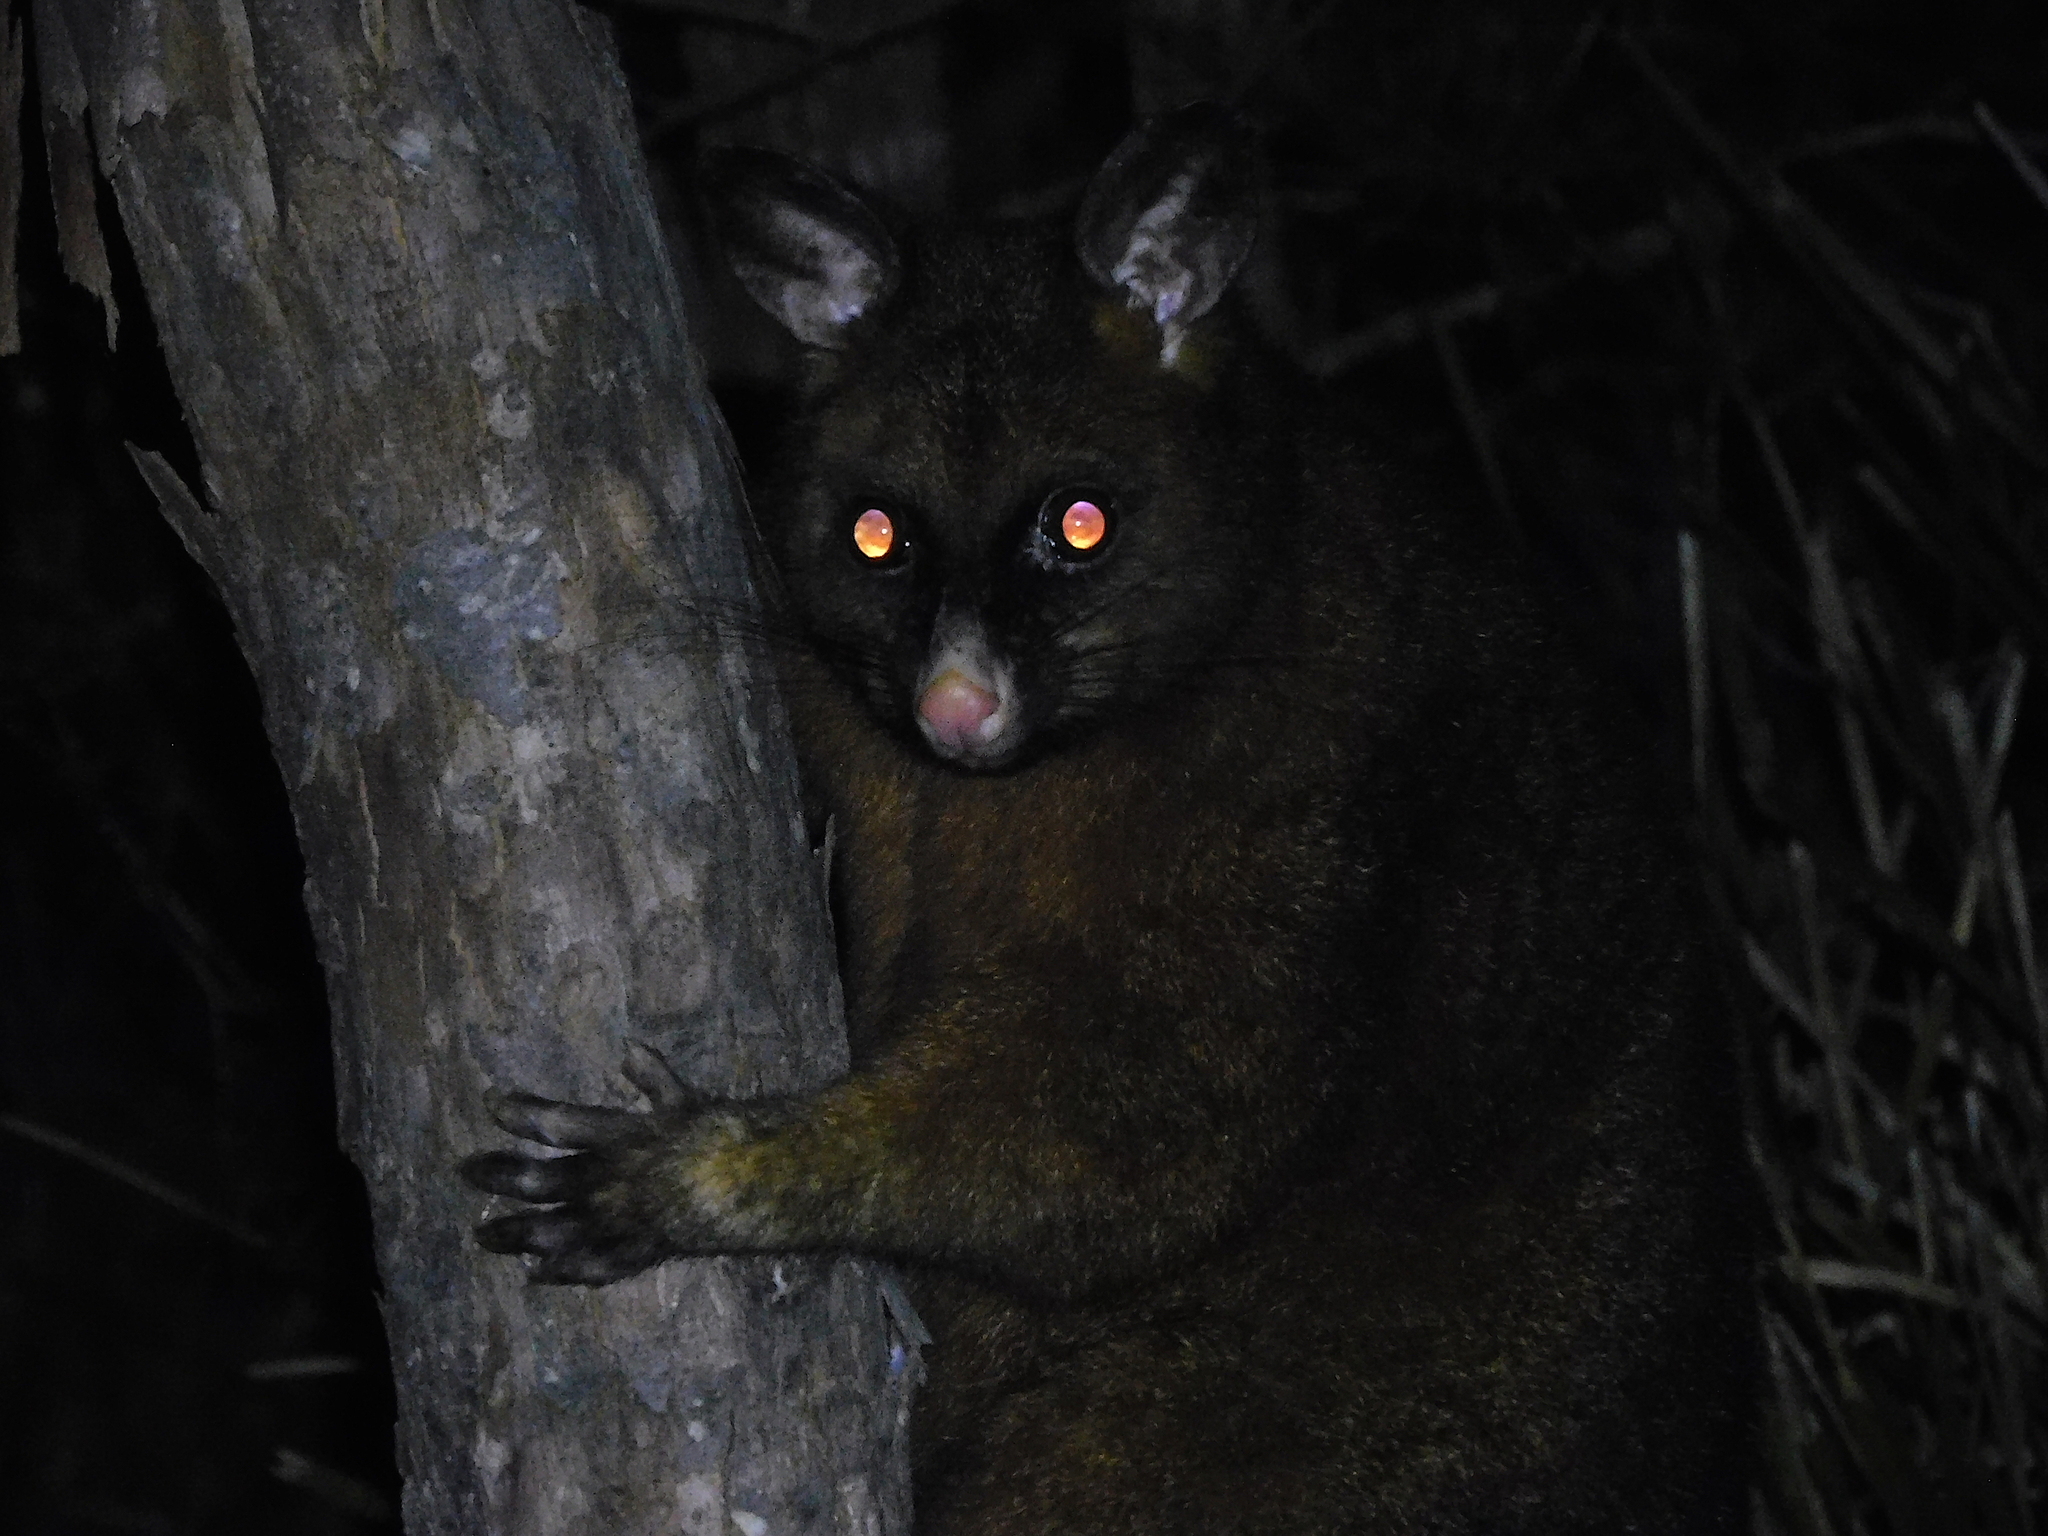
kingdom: Animalia
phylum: Chordata
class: Mammalia
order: Diprotodontia
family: Phalangeridae
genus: Trichosurus
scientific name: Trichosurus vulpecula
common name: Common brushtail
